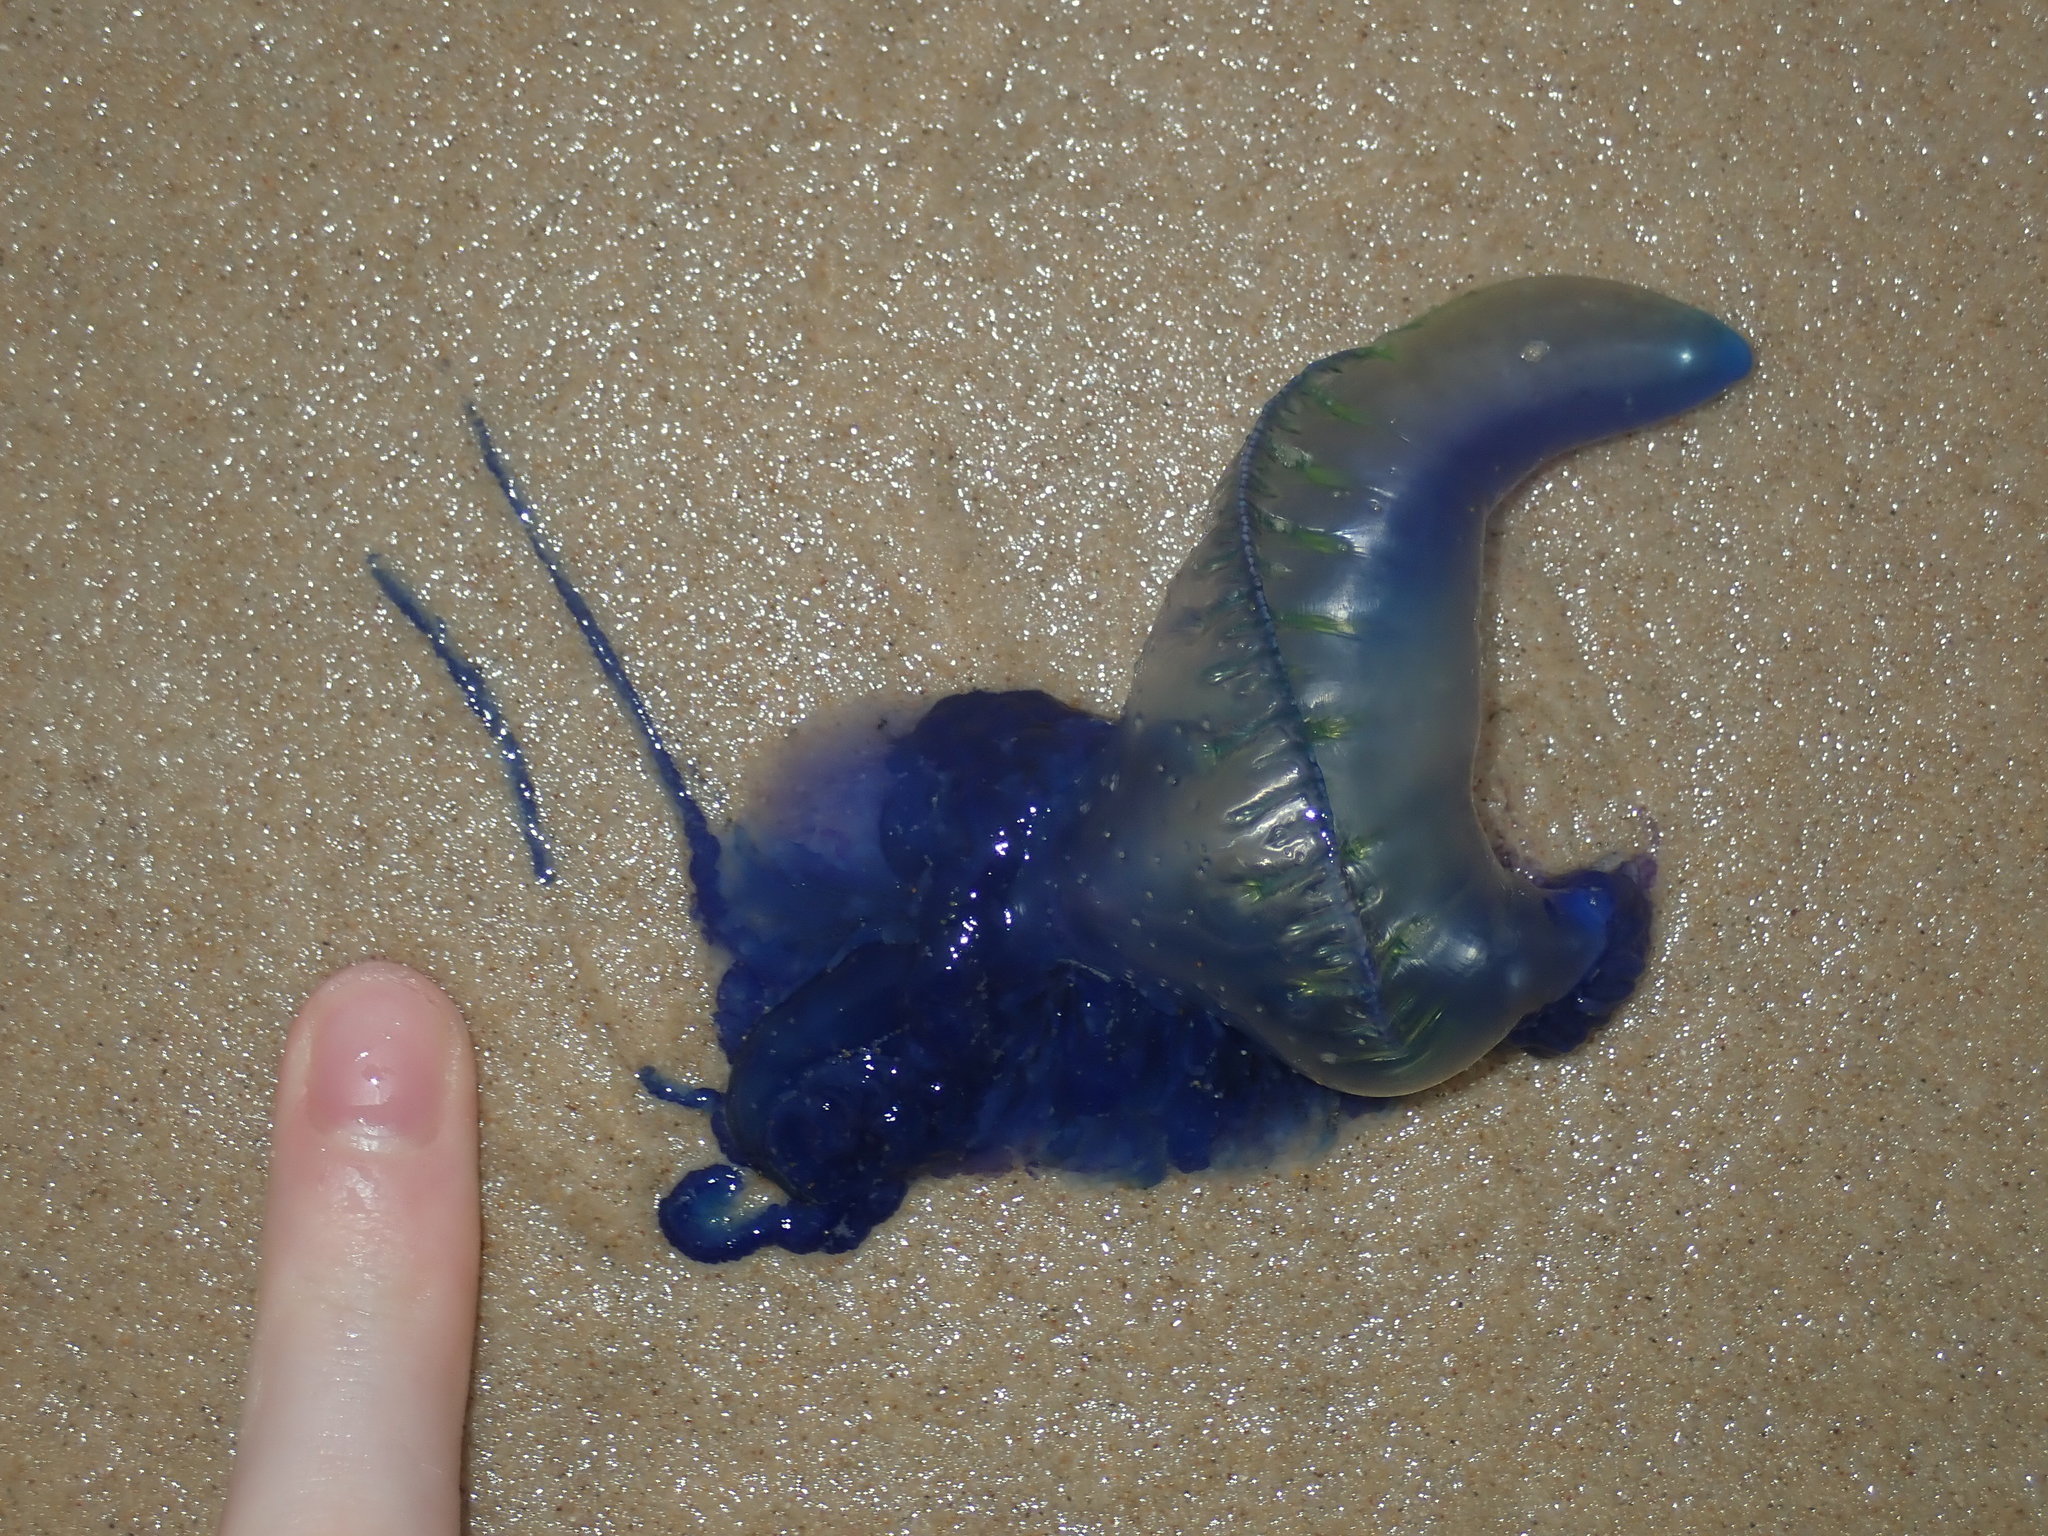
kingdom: Animalia
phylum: Cnidaria
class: Hydrozoa
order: Siphonophorae
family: Physaliidae
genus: Physalia
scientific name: Physalia physalis
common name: Portuguese man-of-war
